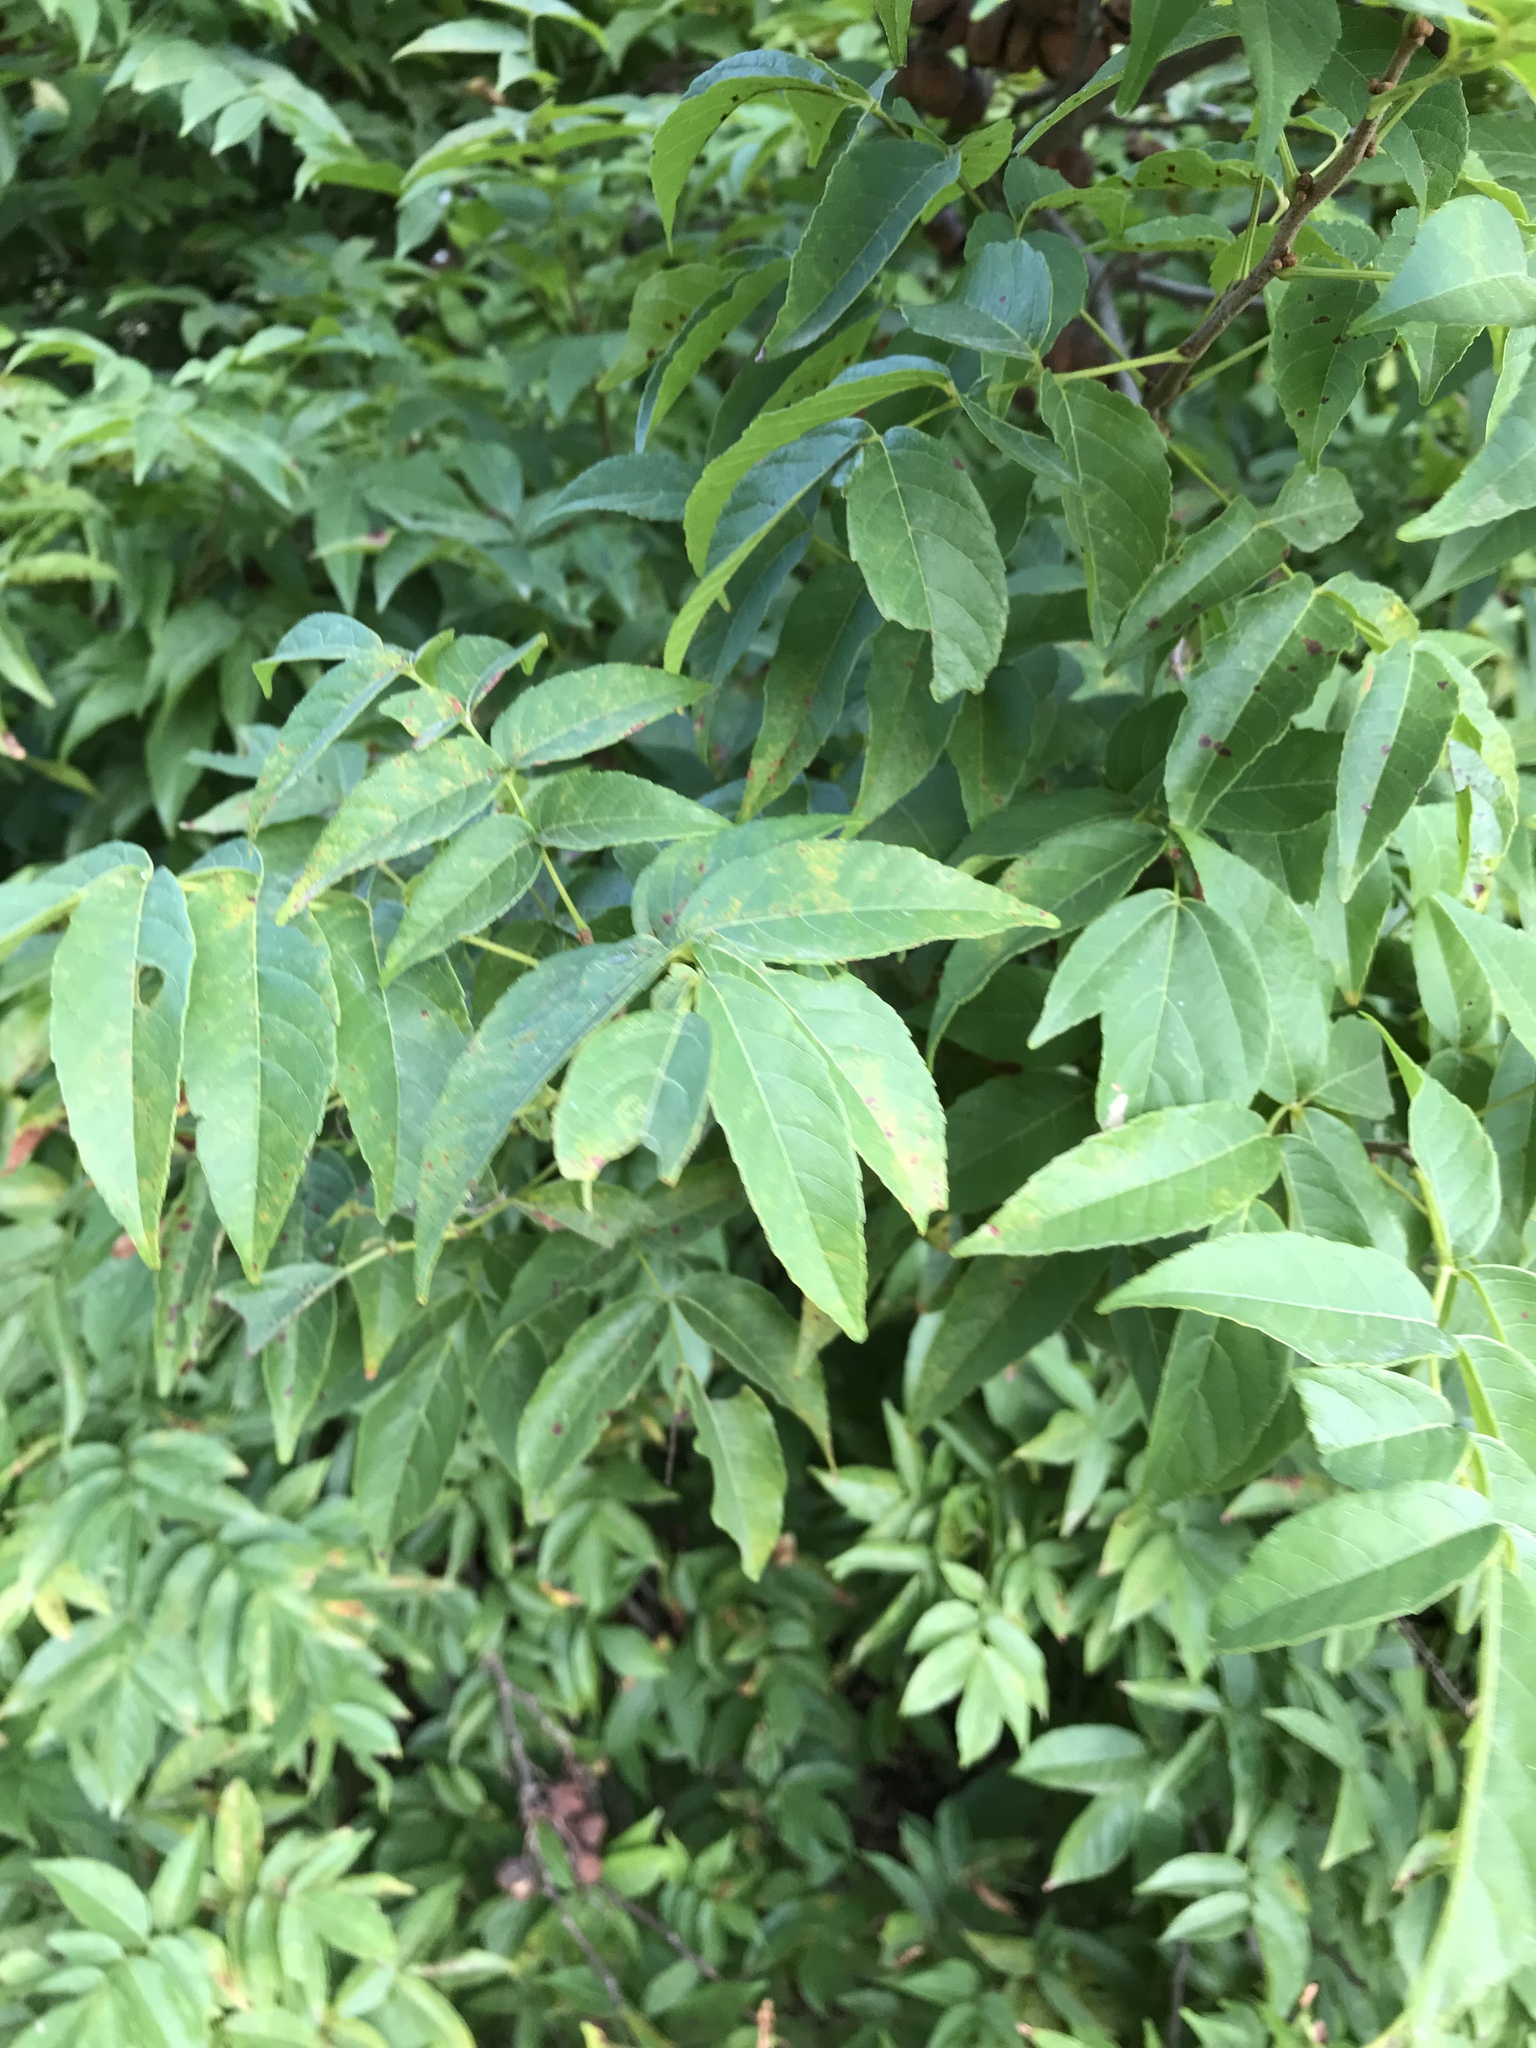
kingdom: Plantae
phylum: Tracheophyta
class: Magnoliopsida
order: Sapindales
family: Sapindaceae
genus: Ungnadia
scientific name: Ungnadia speciosa
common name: Texas-buckeye
